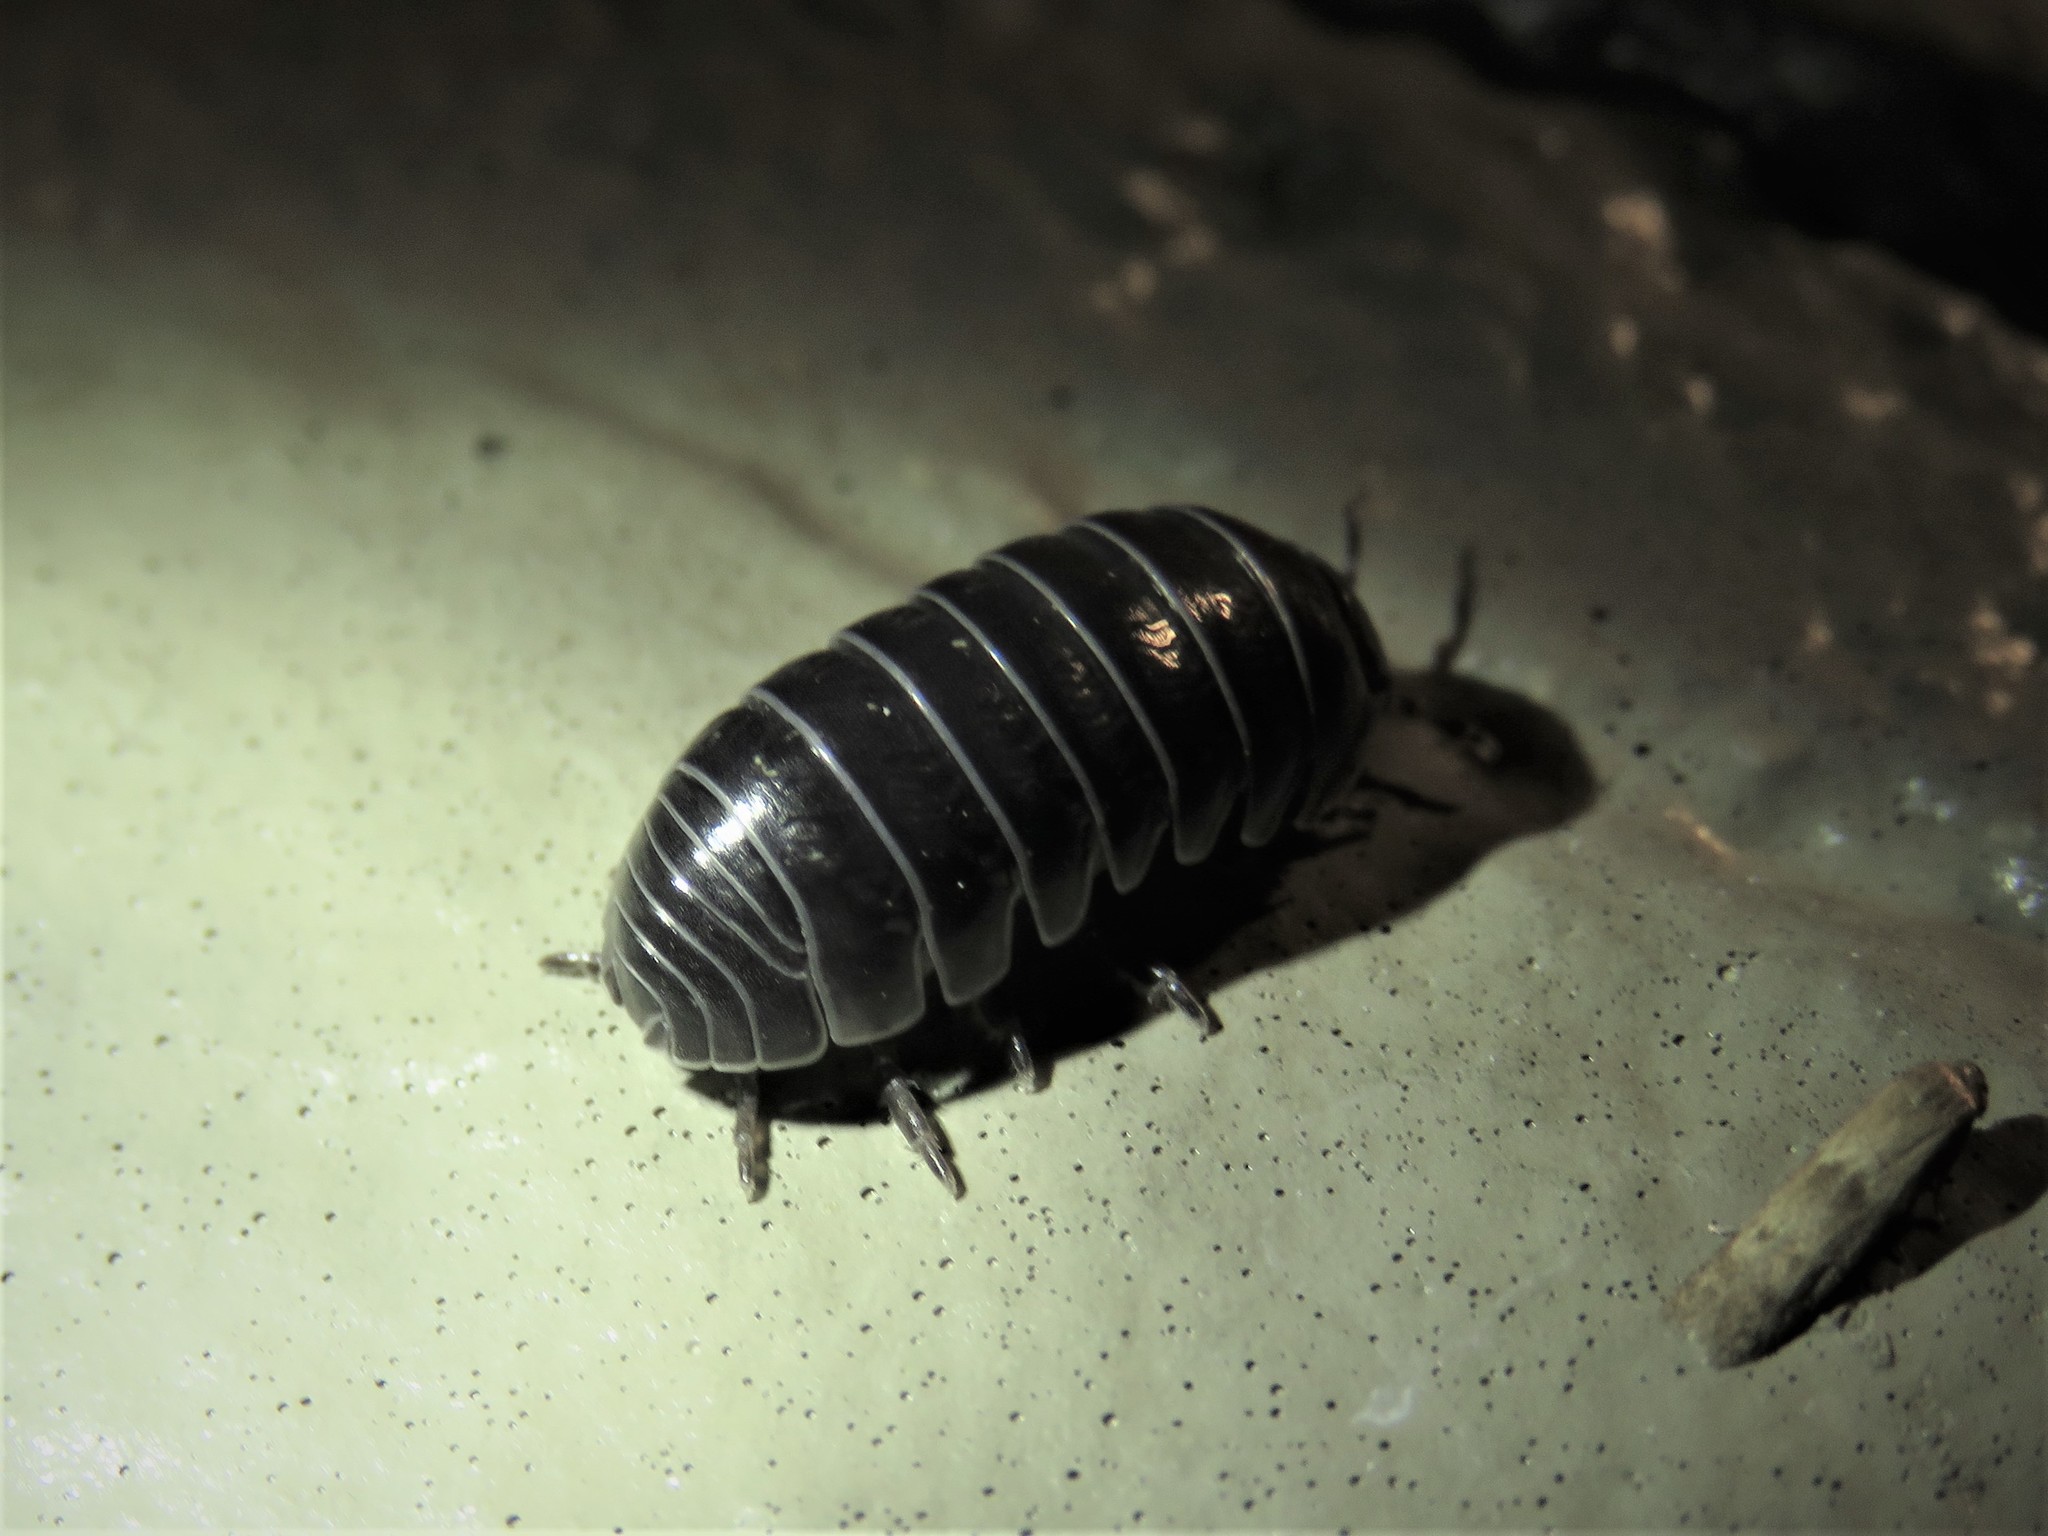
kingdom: Animalia
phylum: Arthropoda
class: Malacostraca
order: Isopoda
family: Armadillidiidae
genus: Armadillidium
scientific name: Armadillidium vulgare
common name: Common pill woodlouse
